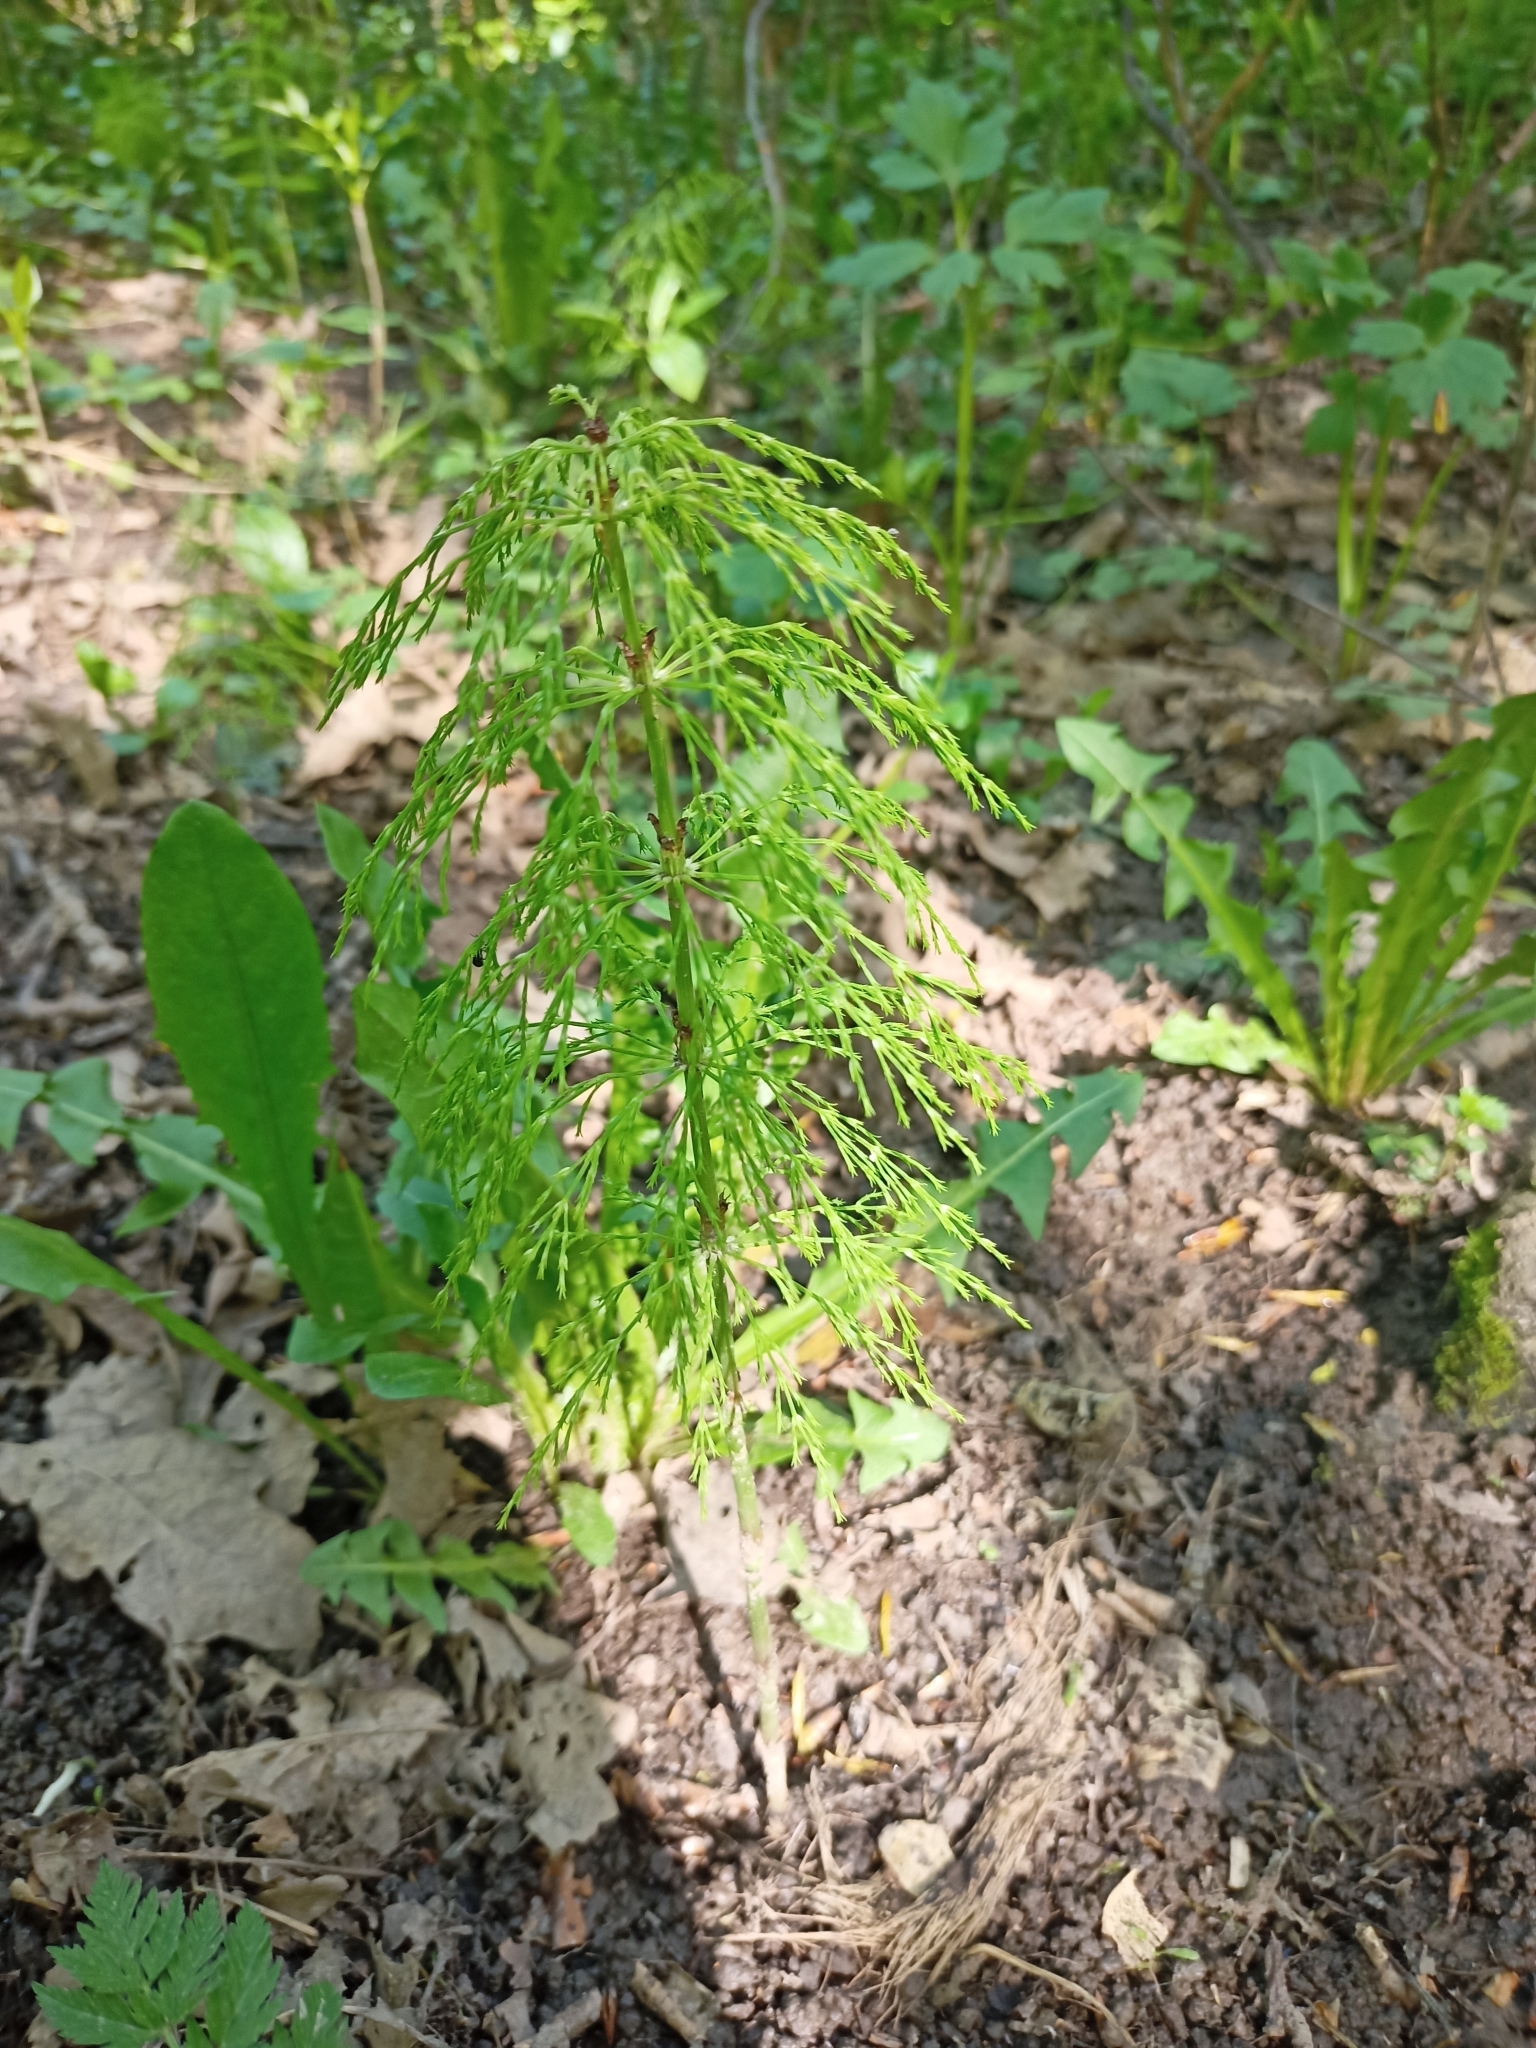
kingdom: Plantae
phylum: Tracheophyta
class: Polypodiopsida
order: Equisetales
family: Equisetaceae
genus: Equisetum
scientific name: Equisetum sylvaticum
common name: Wood horsetail
